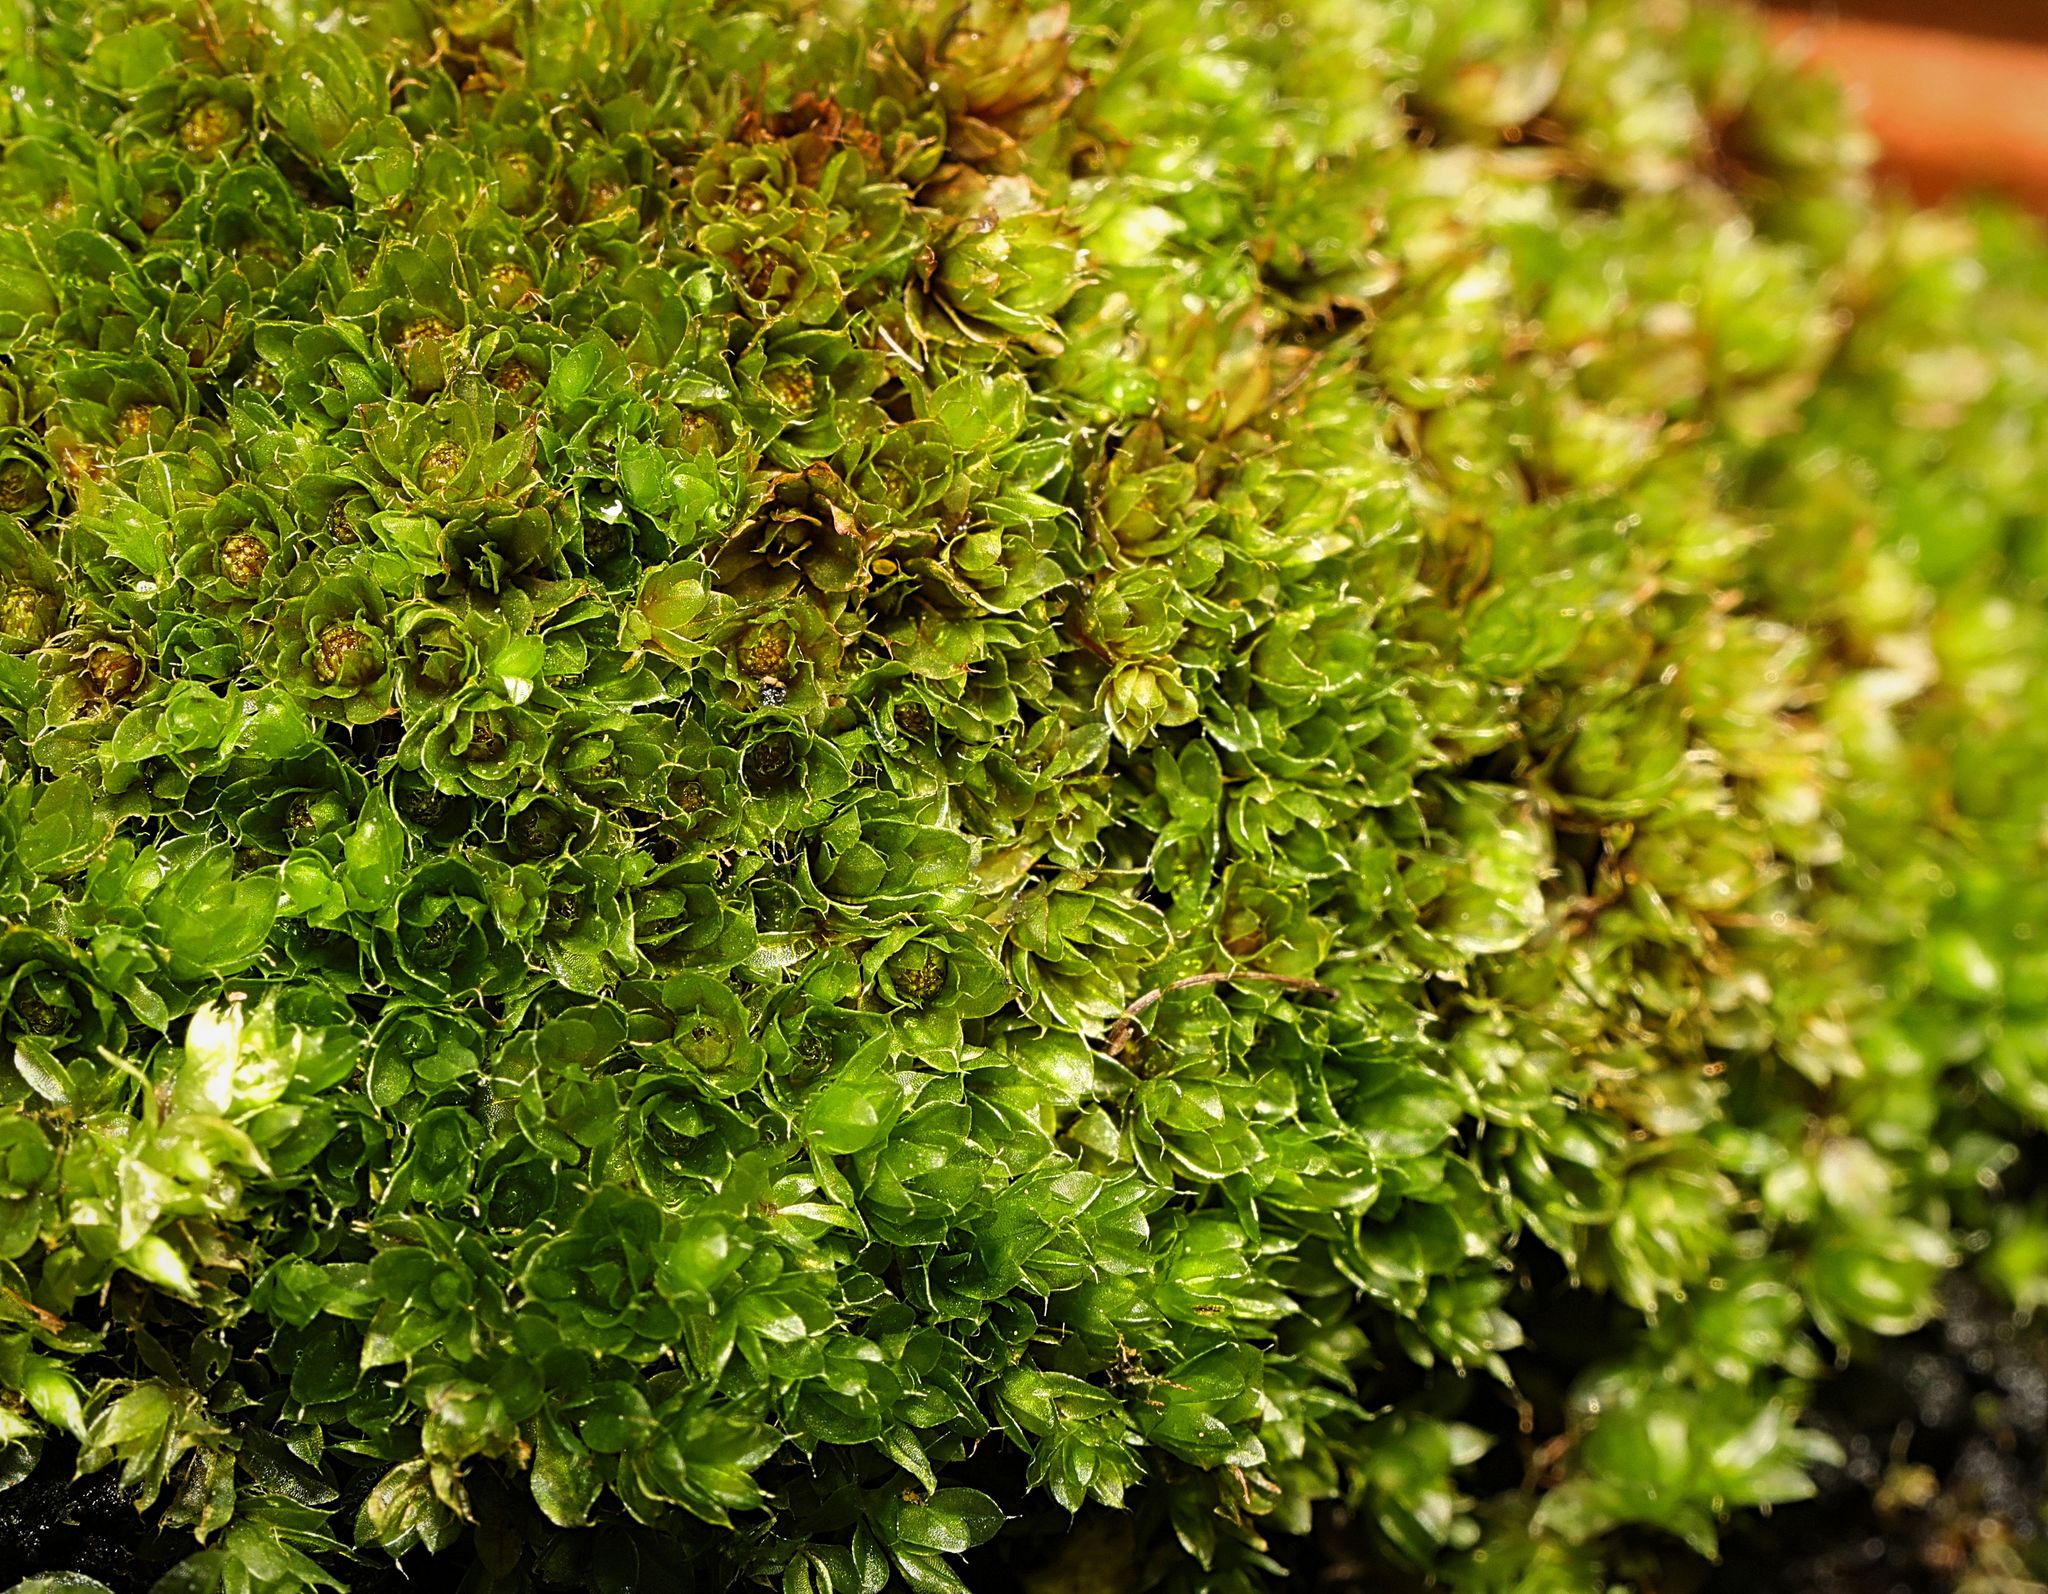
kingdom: Plantae
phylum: Bryophyta
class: Bryopsida
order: Bryales
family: Bryaceae
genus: Rosulabryum
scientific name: Rosulabryum capillare
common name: Capillary thread-moss
